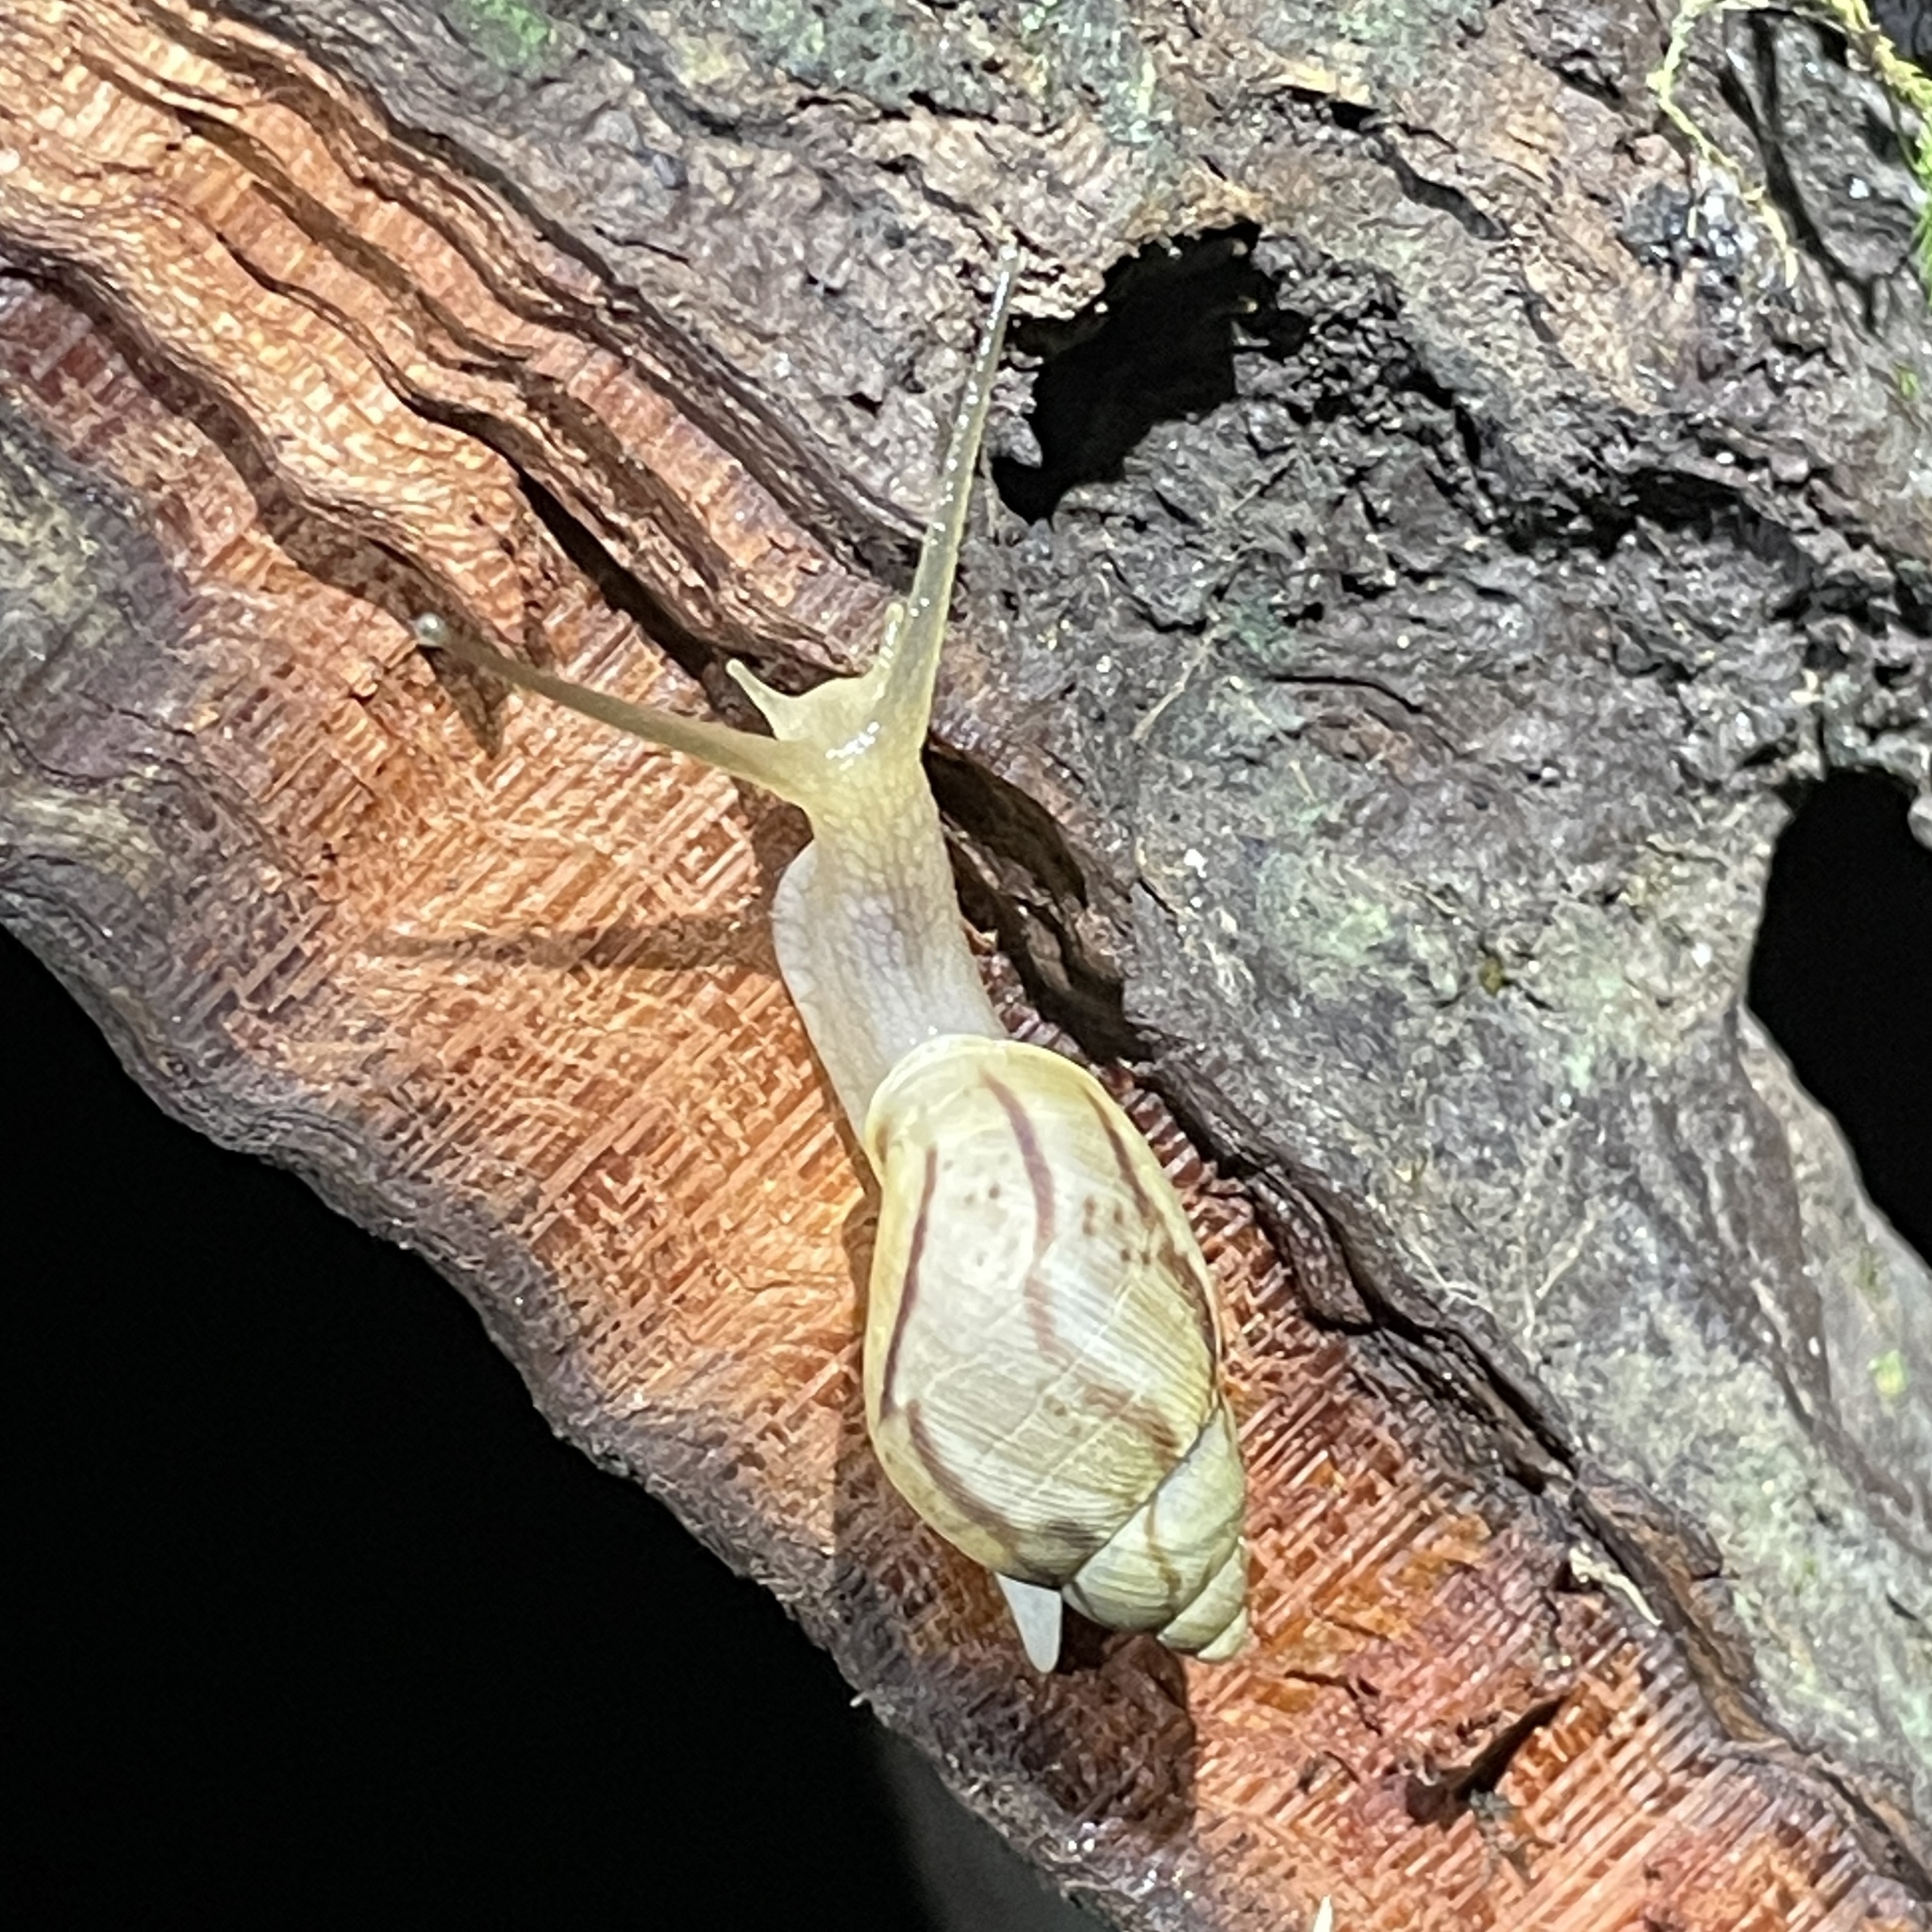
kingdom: Animalia
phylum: Mollusca
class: Gastropoda
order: Stylommatophora
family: Amphibulimidae
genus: Plekocheilus
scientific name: Plekocheilus glaber
